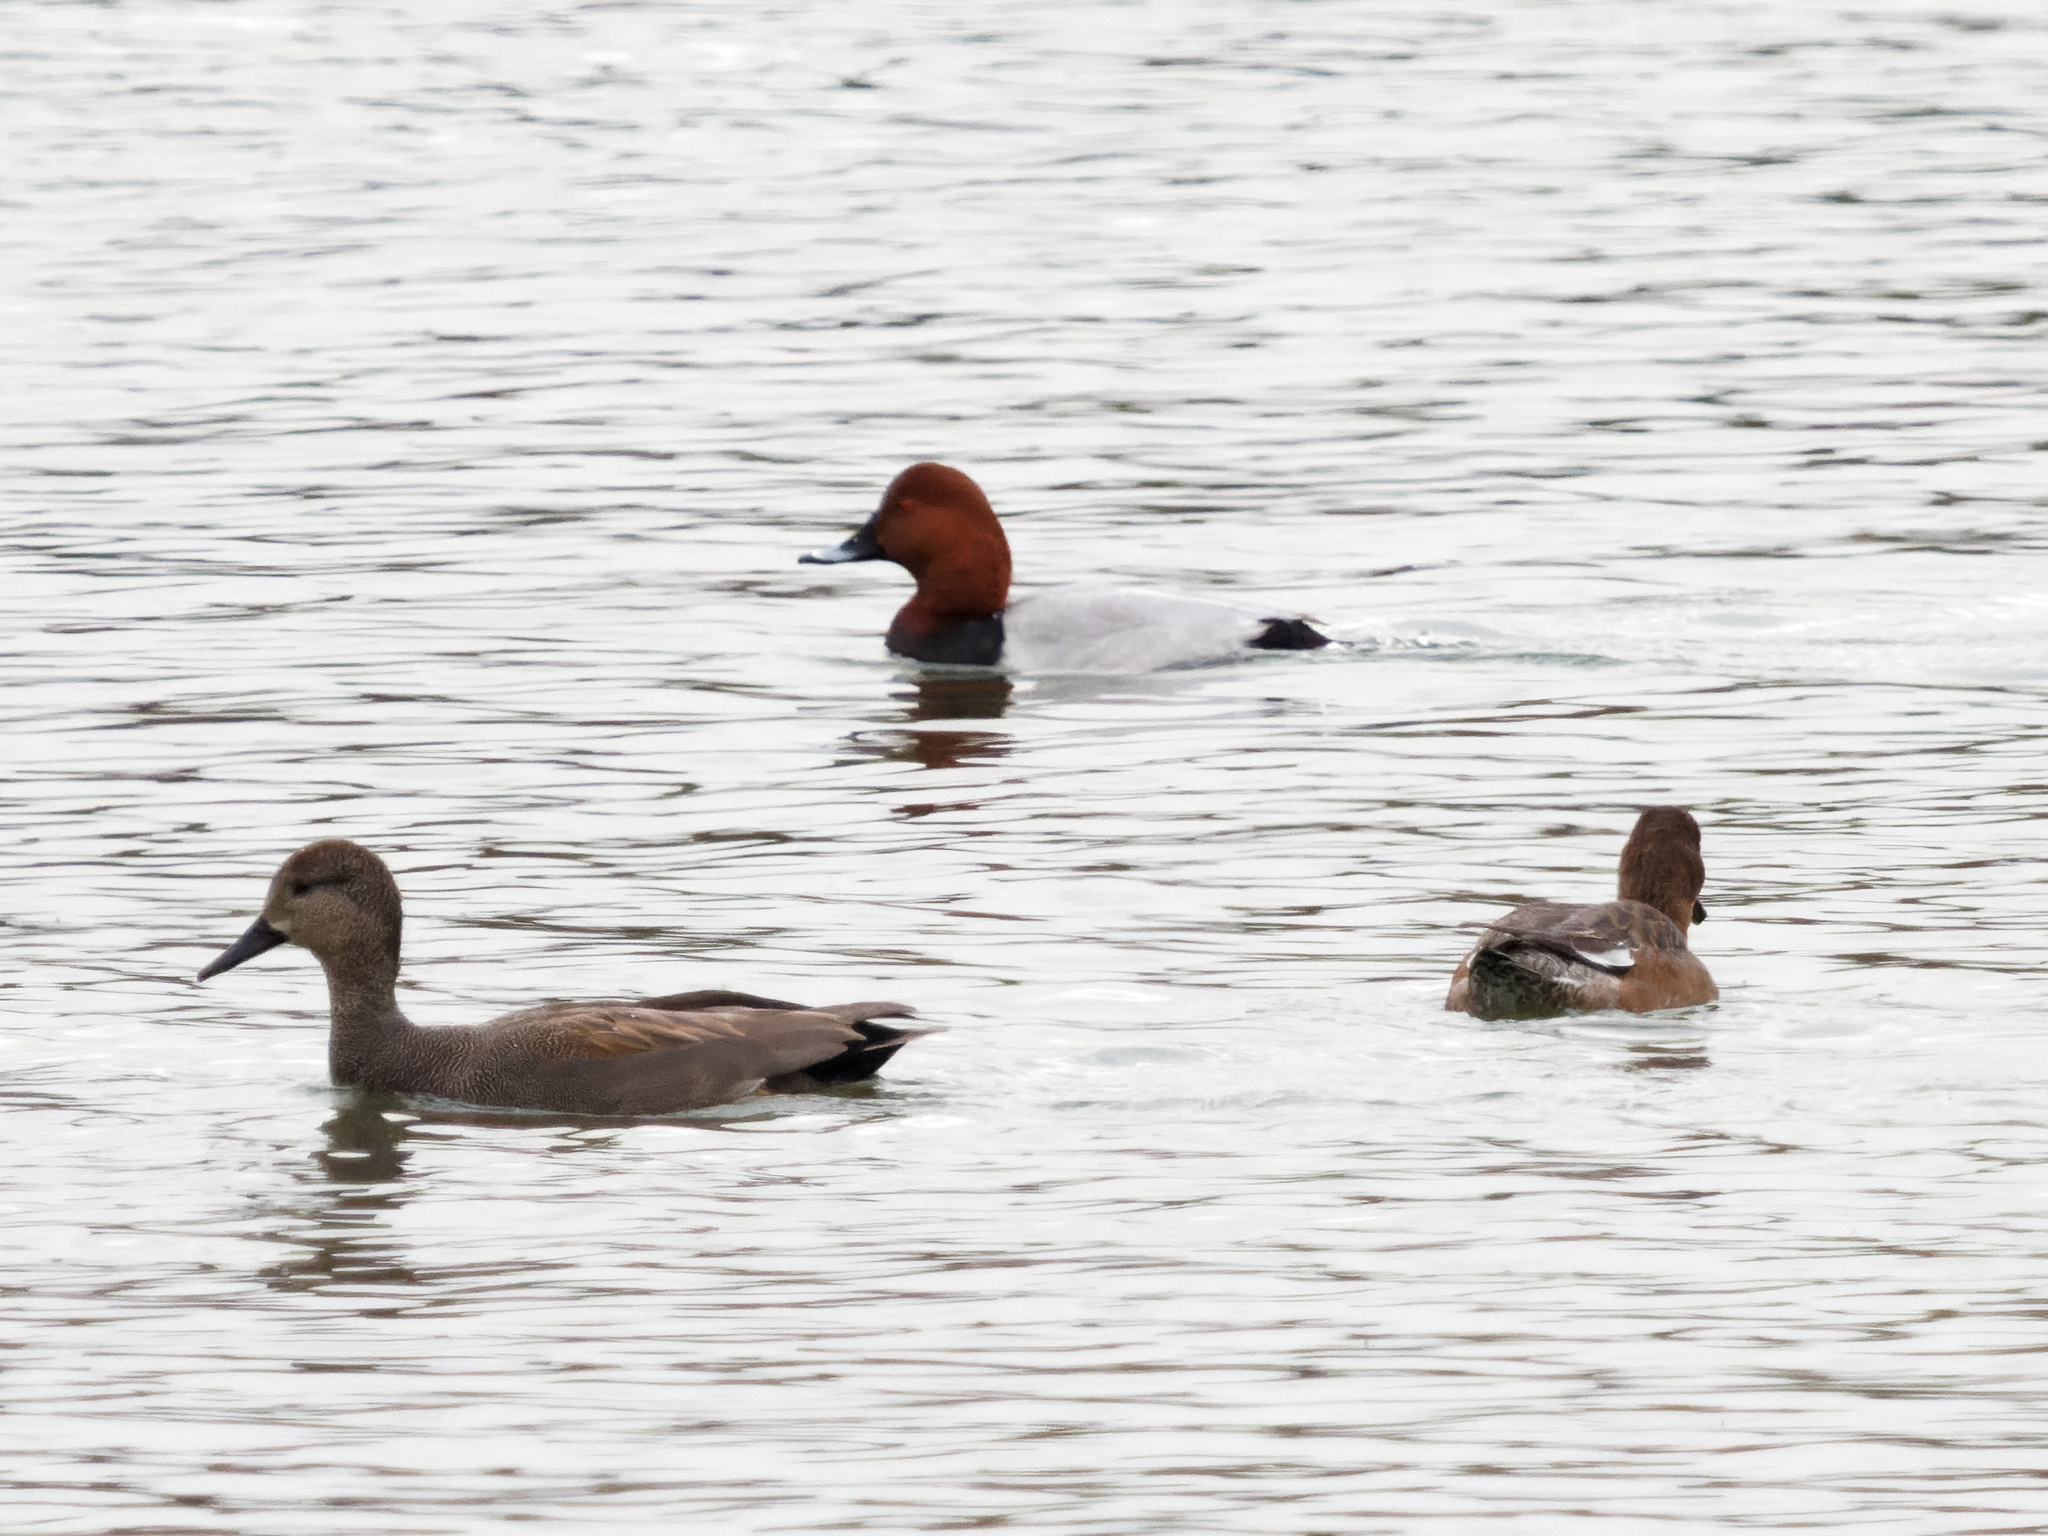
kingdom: Animalia
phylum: Chordata
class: Aves
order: Anseriformes
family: Anatidae
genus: Mareca
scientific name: Mareca strepera
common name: Gadwall
